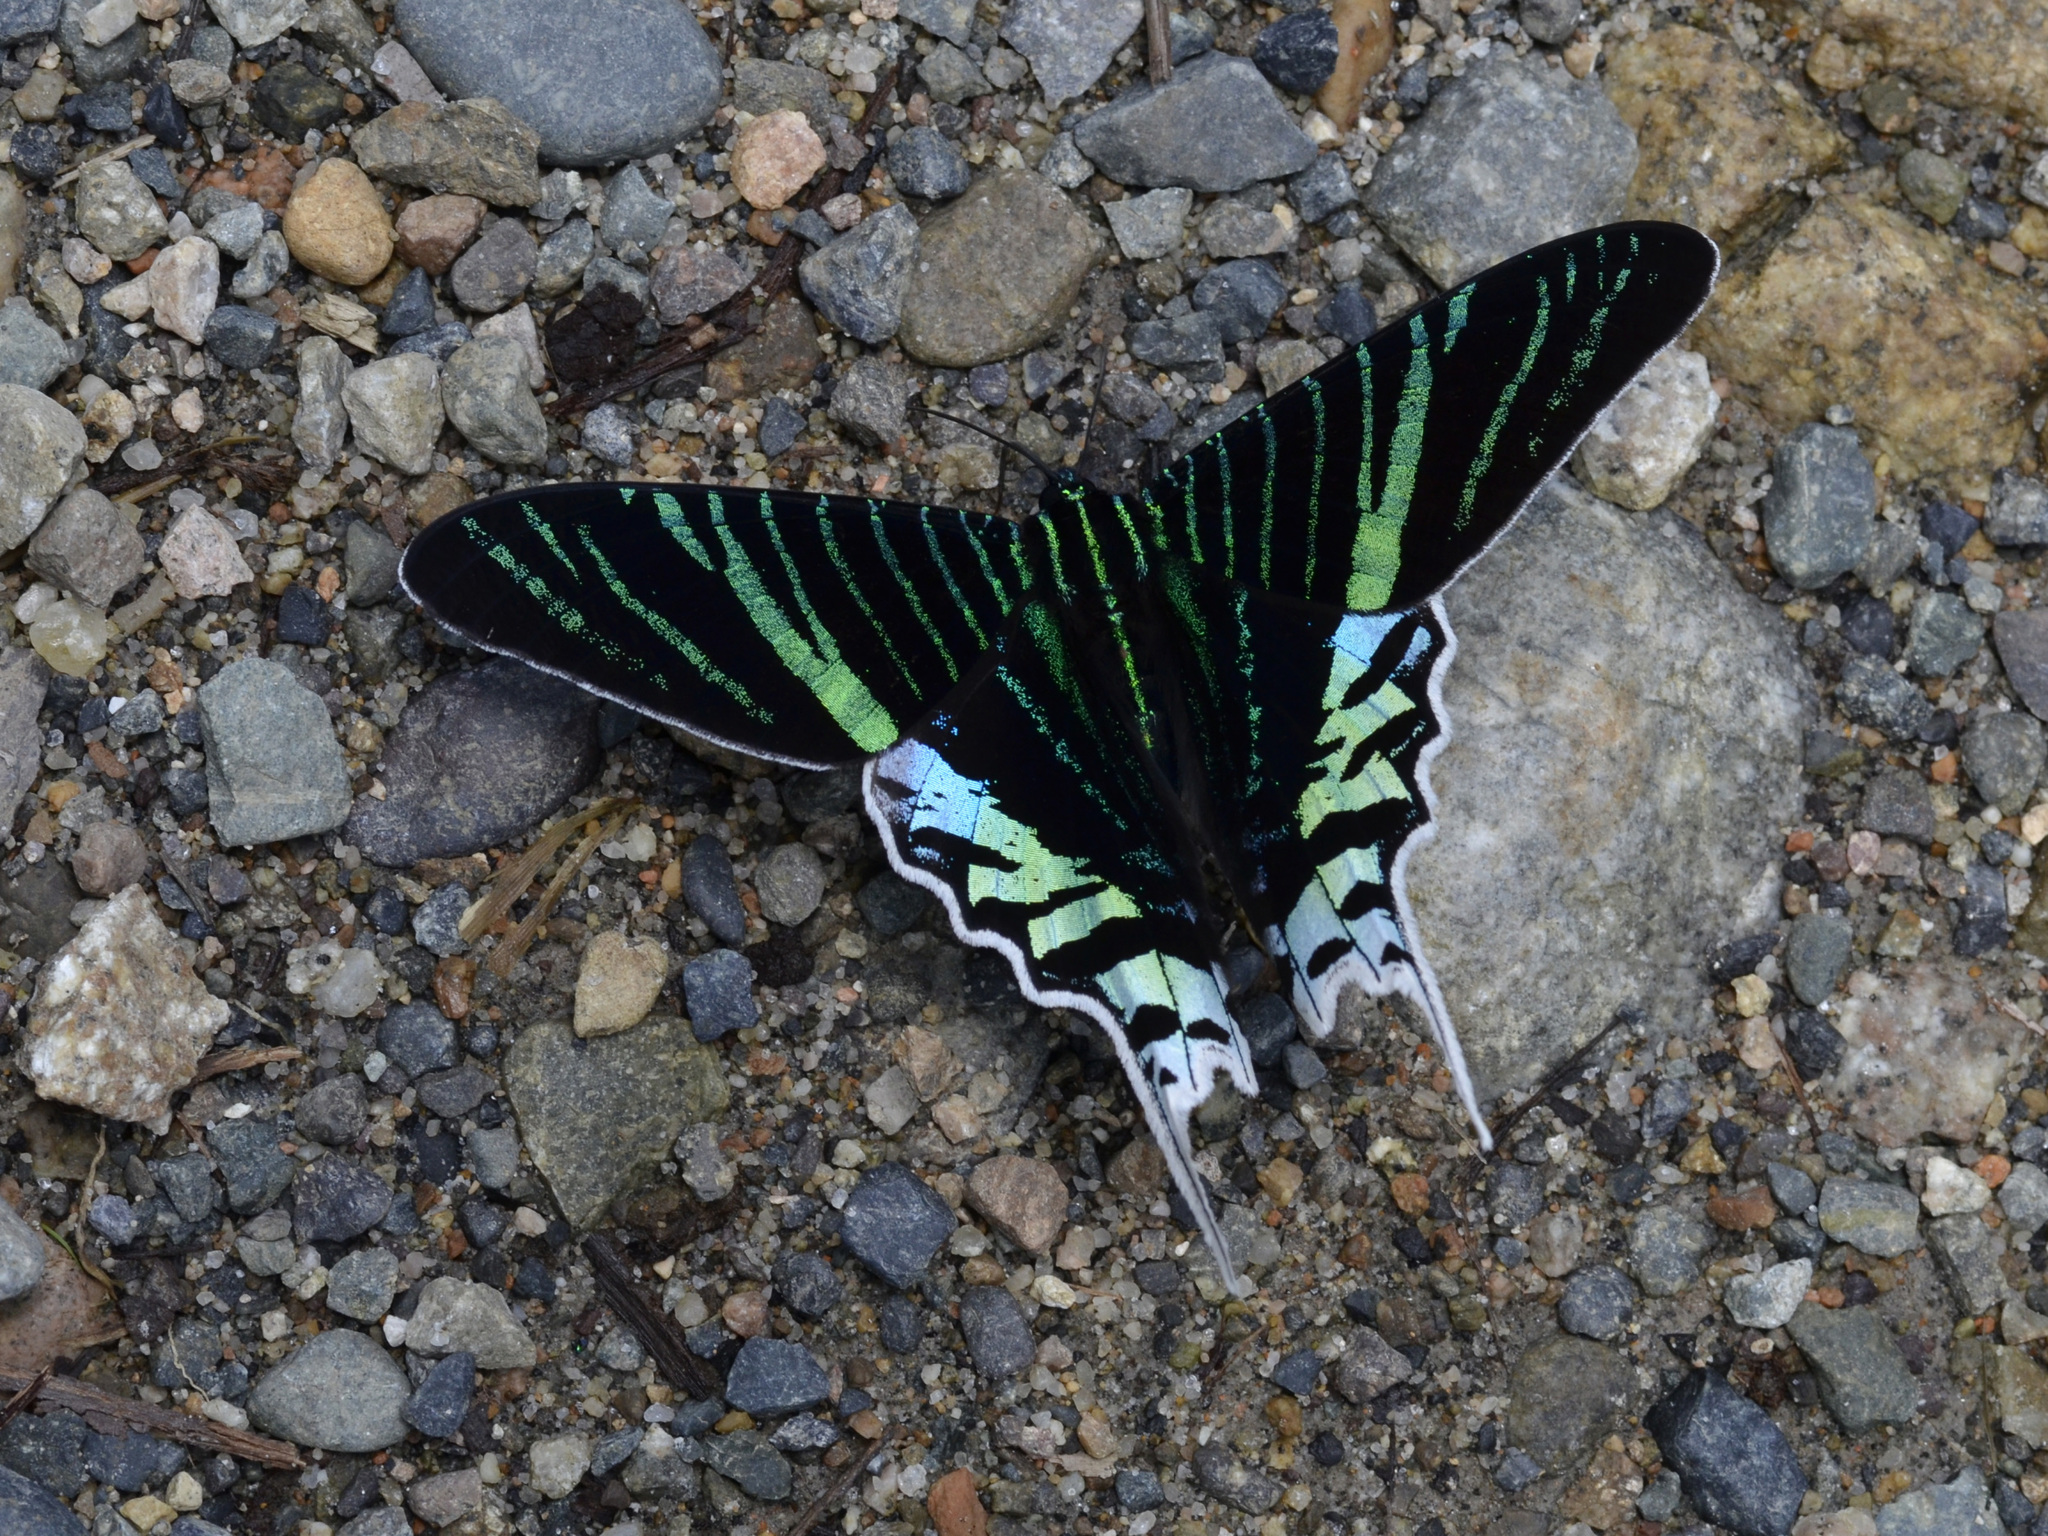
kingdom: Animalia
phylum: Arthropoda
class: Insecta
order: Lepidoptera
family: Uraniidae
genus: Urania
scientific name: Urania leilus
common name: Peacock moth
